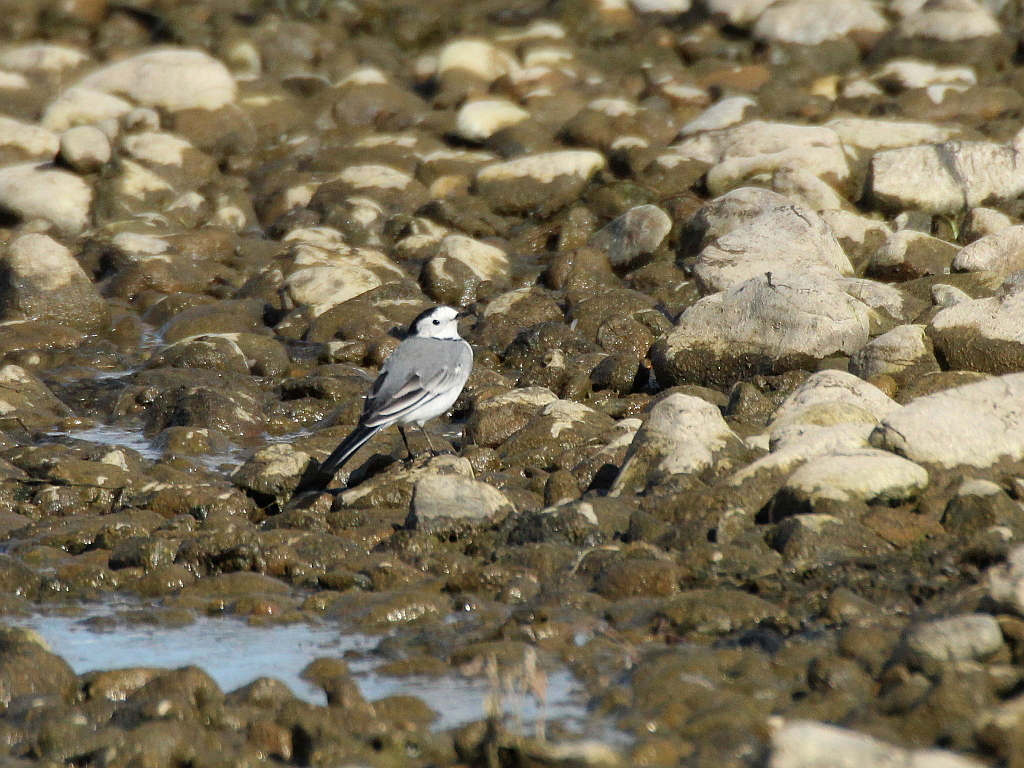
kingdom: Animalia
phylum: Chordata
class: Aves
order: Passeriformes
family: Motacillidae
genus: Motacilla
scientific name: Motacilla alba
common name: White wagtail
